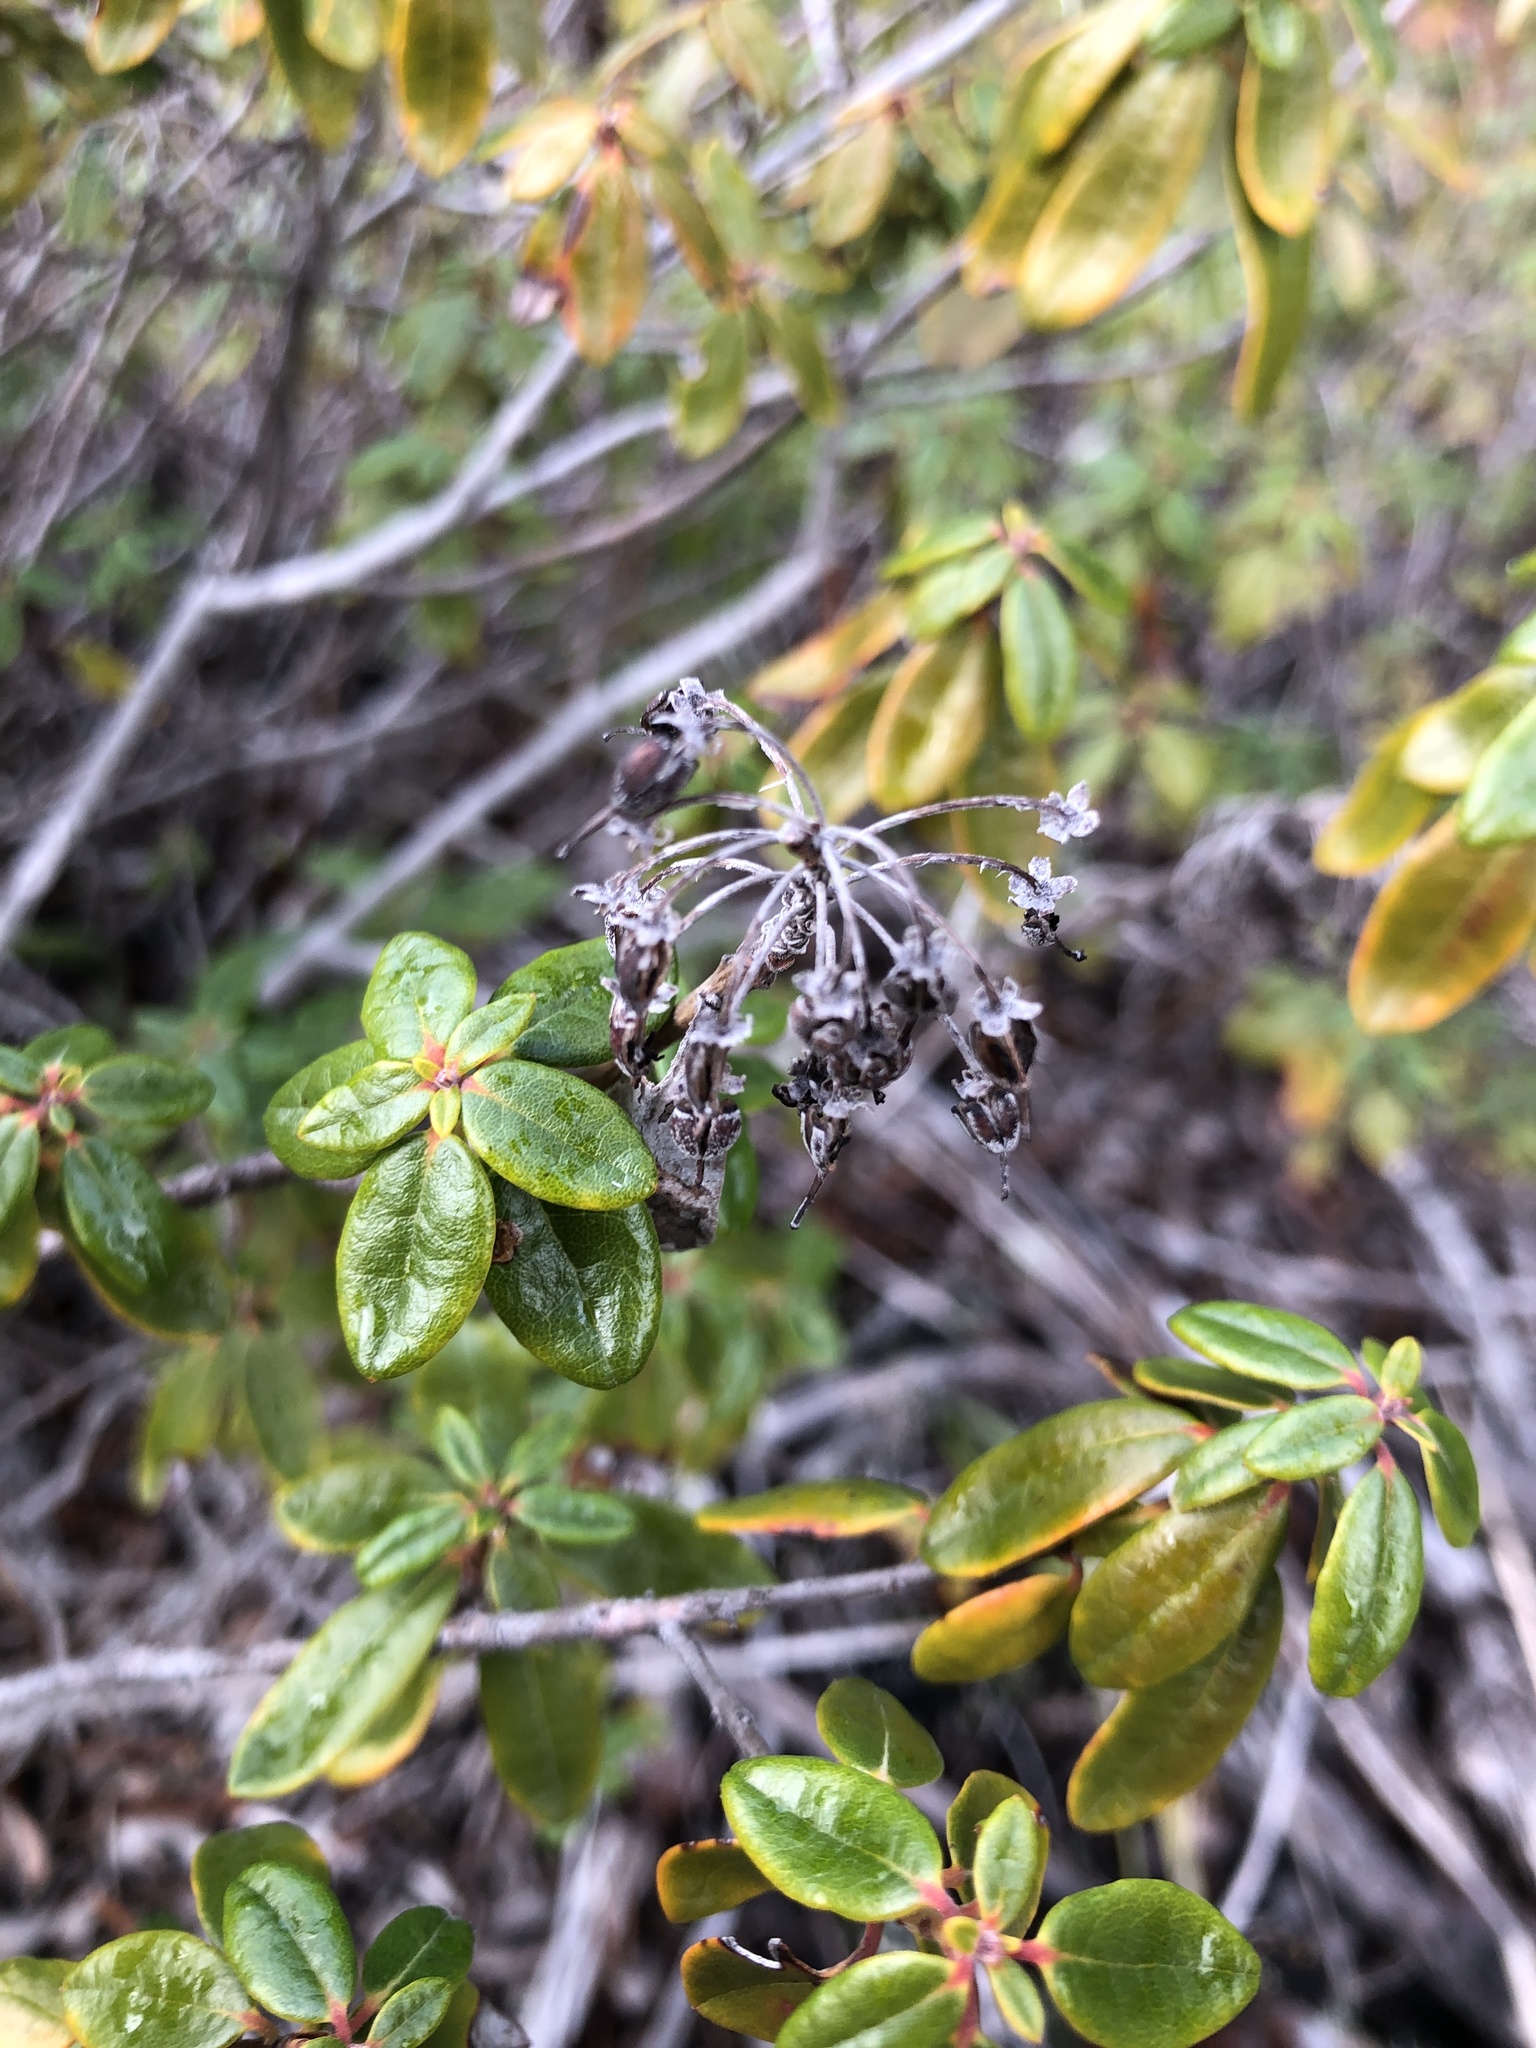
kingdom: Plantae
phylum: Tracheophyta
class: Magnoliopsida
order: Ericales
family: Ericaceae
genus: Rhododendron
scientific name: Rhododendron columbianum
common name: Western labrador tea
